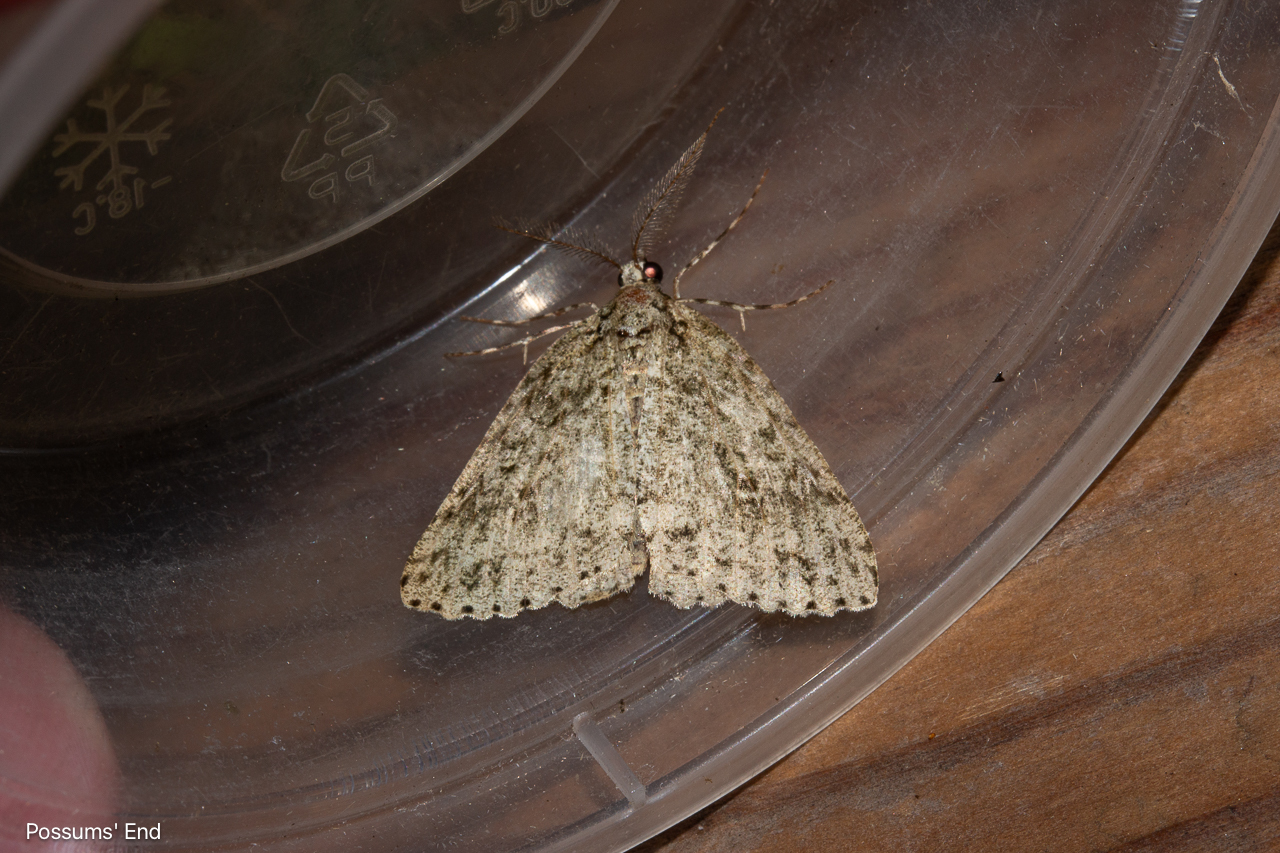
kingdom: Animalia
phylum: Arthropoda
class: Insecta
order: Lepidoptera
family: Geometridae
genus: Pseudocoremia
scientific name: Pseudocoremia rudisata
